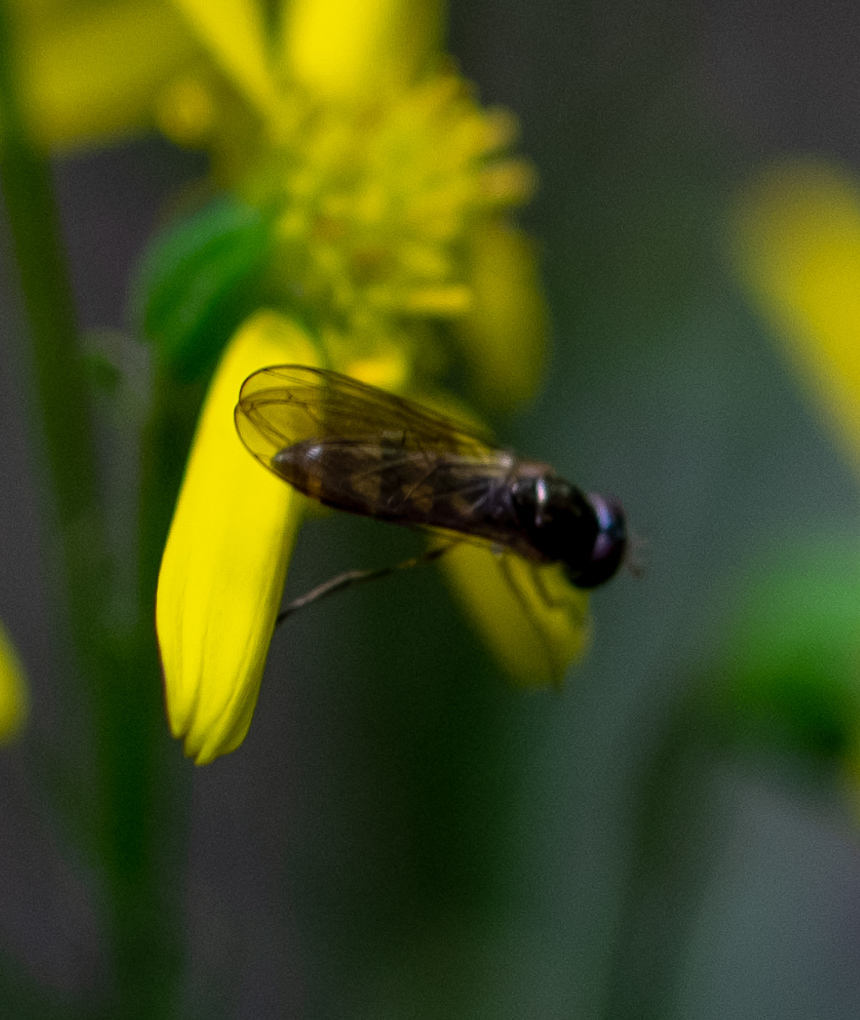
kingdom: Animalia
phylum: Arthropoda
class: Insecta
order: Diptera
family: Syrphidae
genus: Melanostoma
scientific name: Melanostoma
